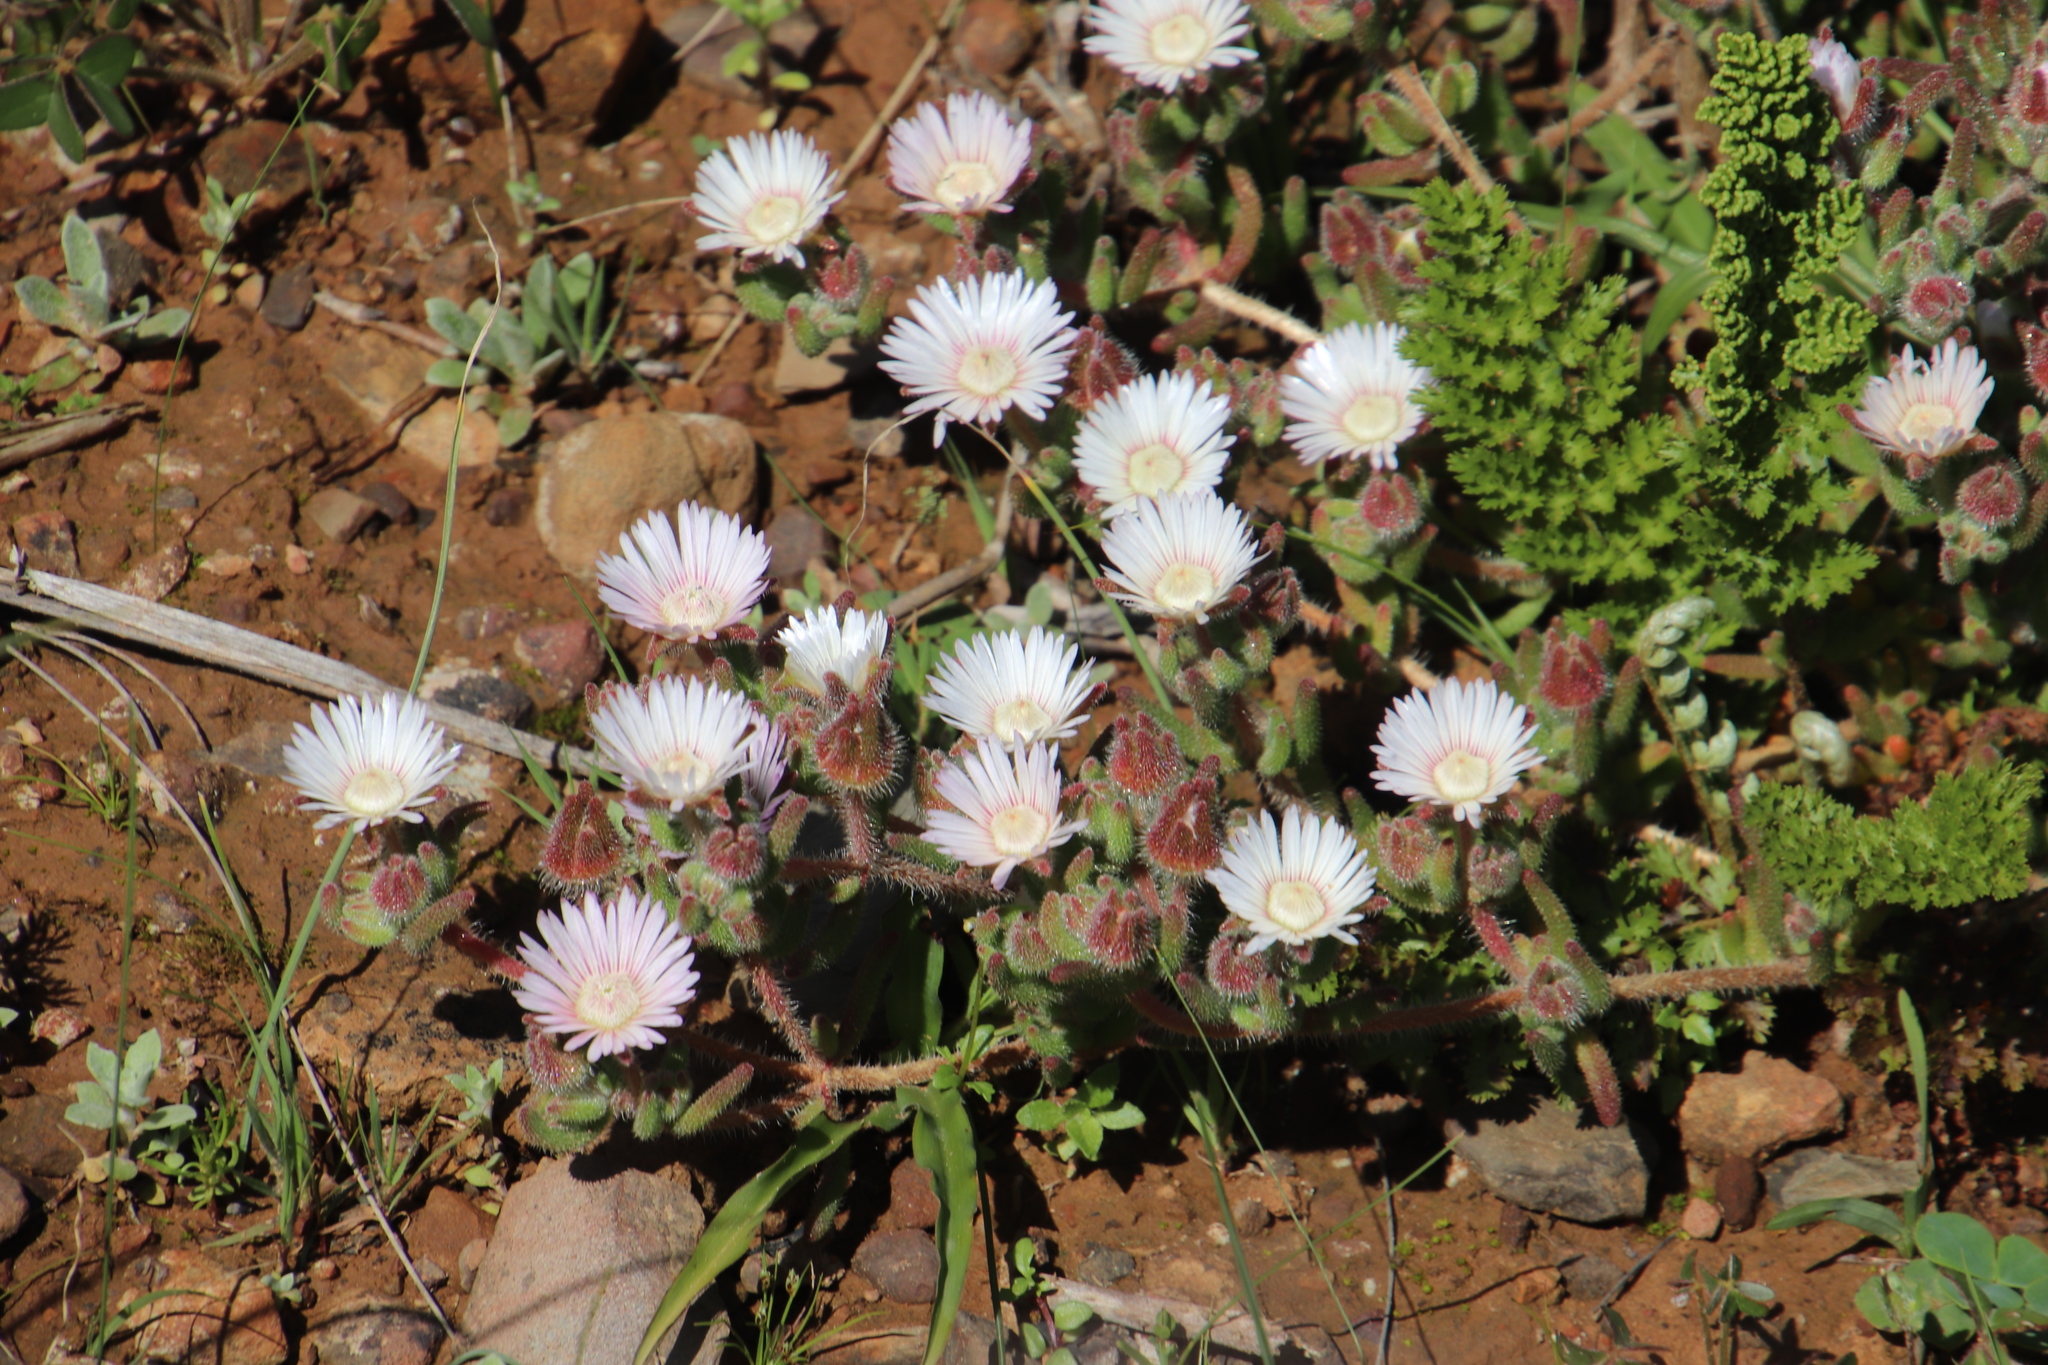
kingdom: Plantae
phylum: Tracheophyta
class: Magnoliopsida
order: Caryophyllales
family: Aizoaceae
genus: Drosanthemum
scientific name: Drosanthemum hispifolium
